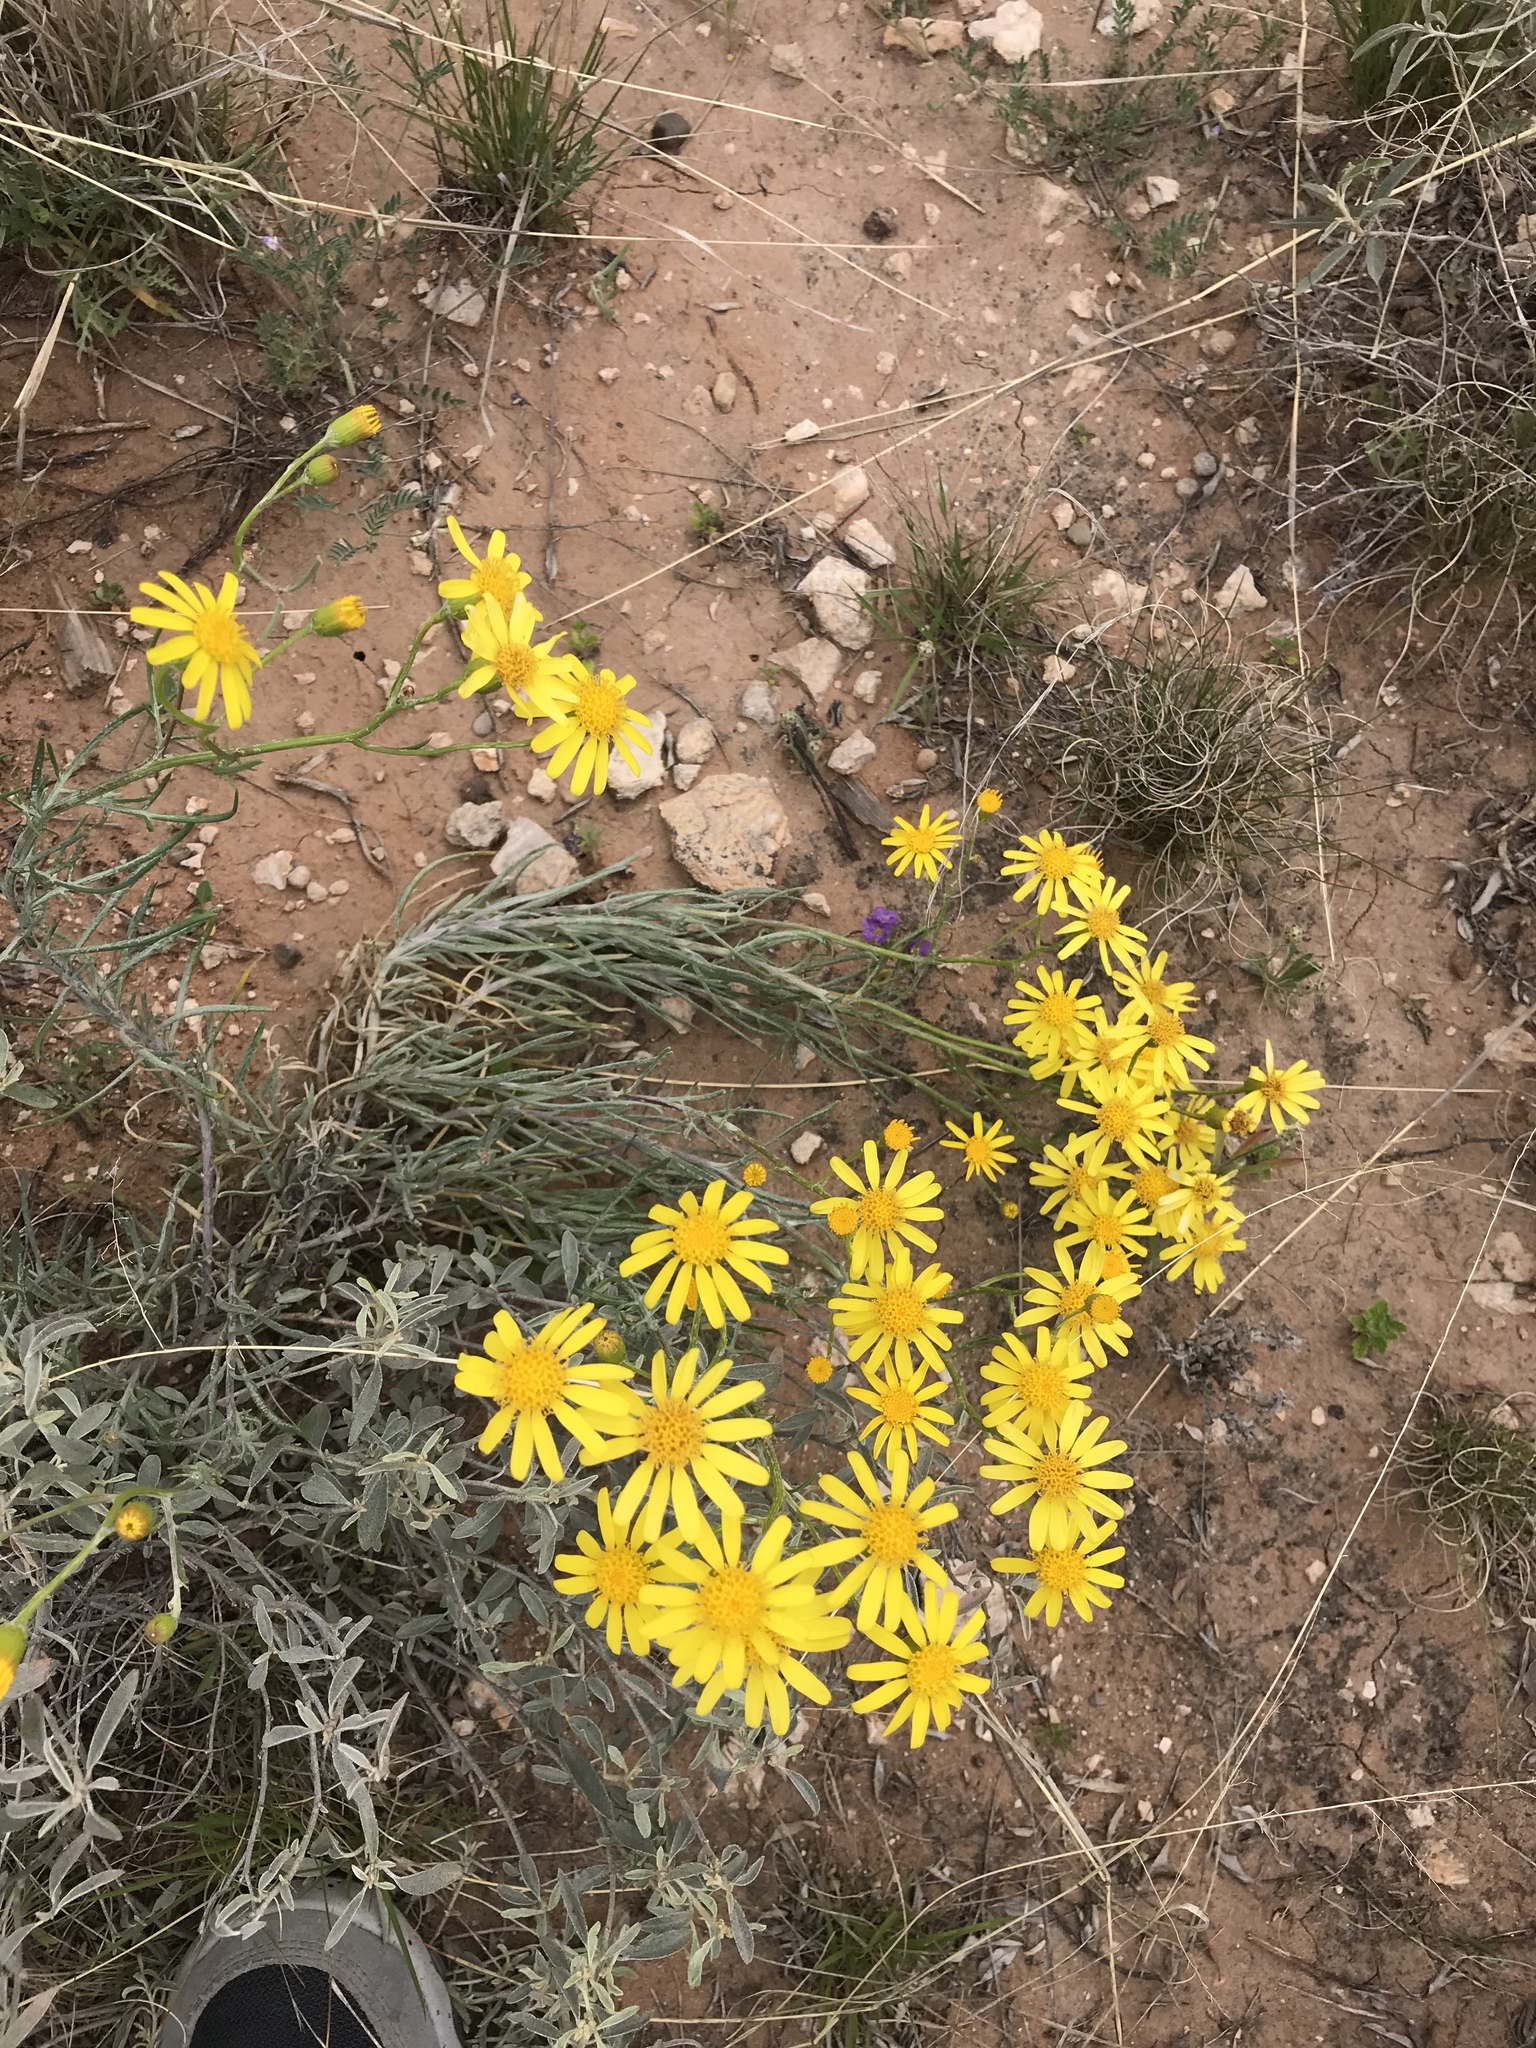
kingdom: Plantae
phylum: Tracheophyta
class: Magnoliopsida
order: Asterales
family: Asteraceae
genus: Senecio
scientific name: Senecio flaccidus
